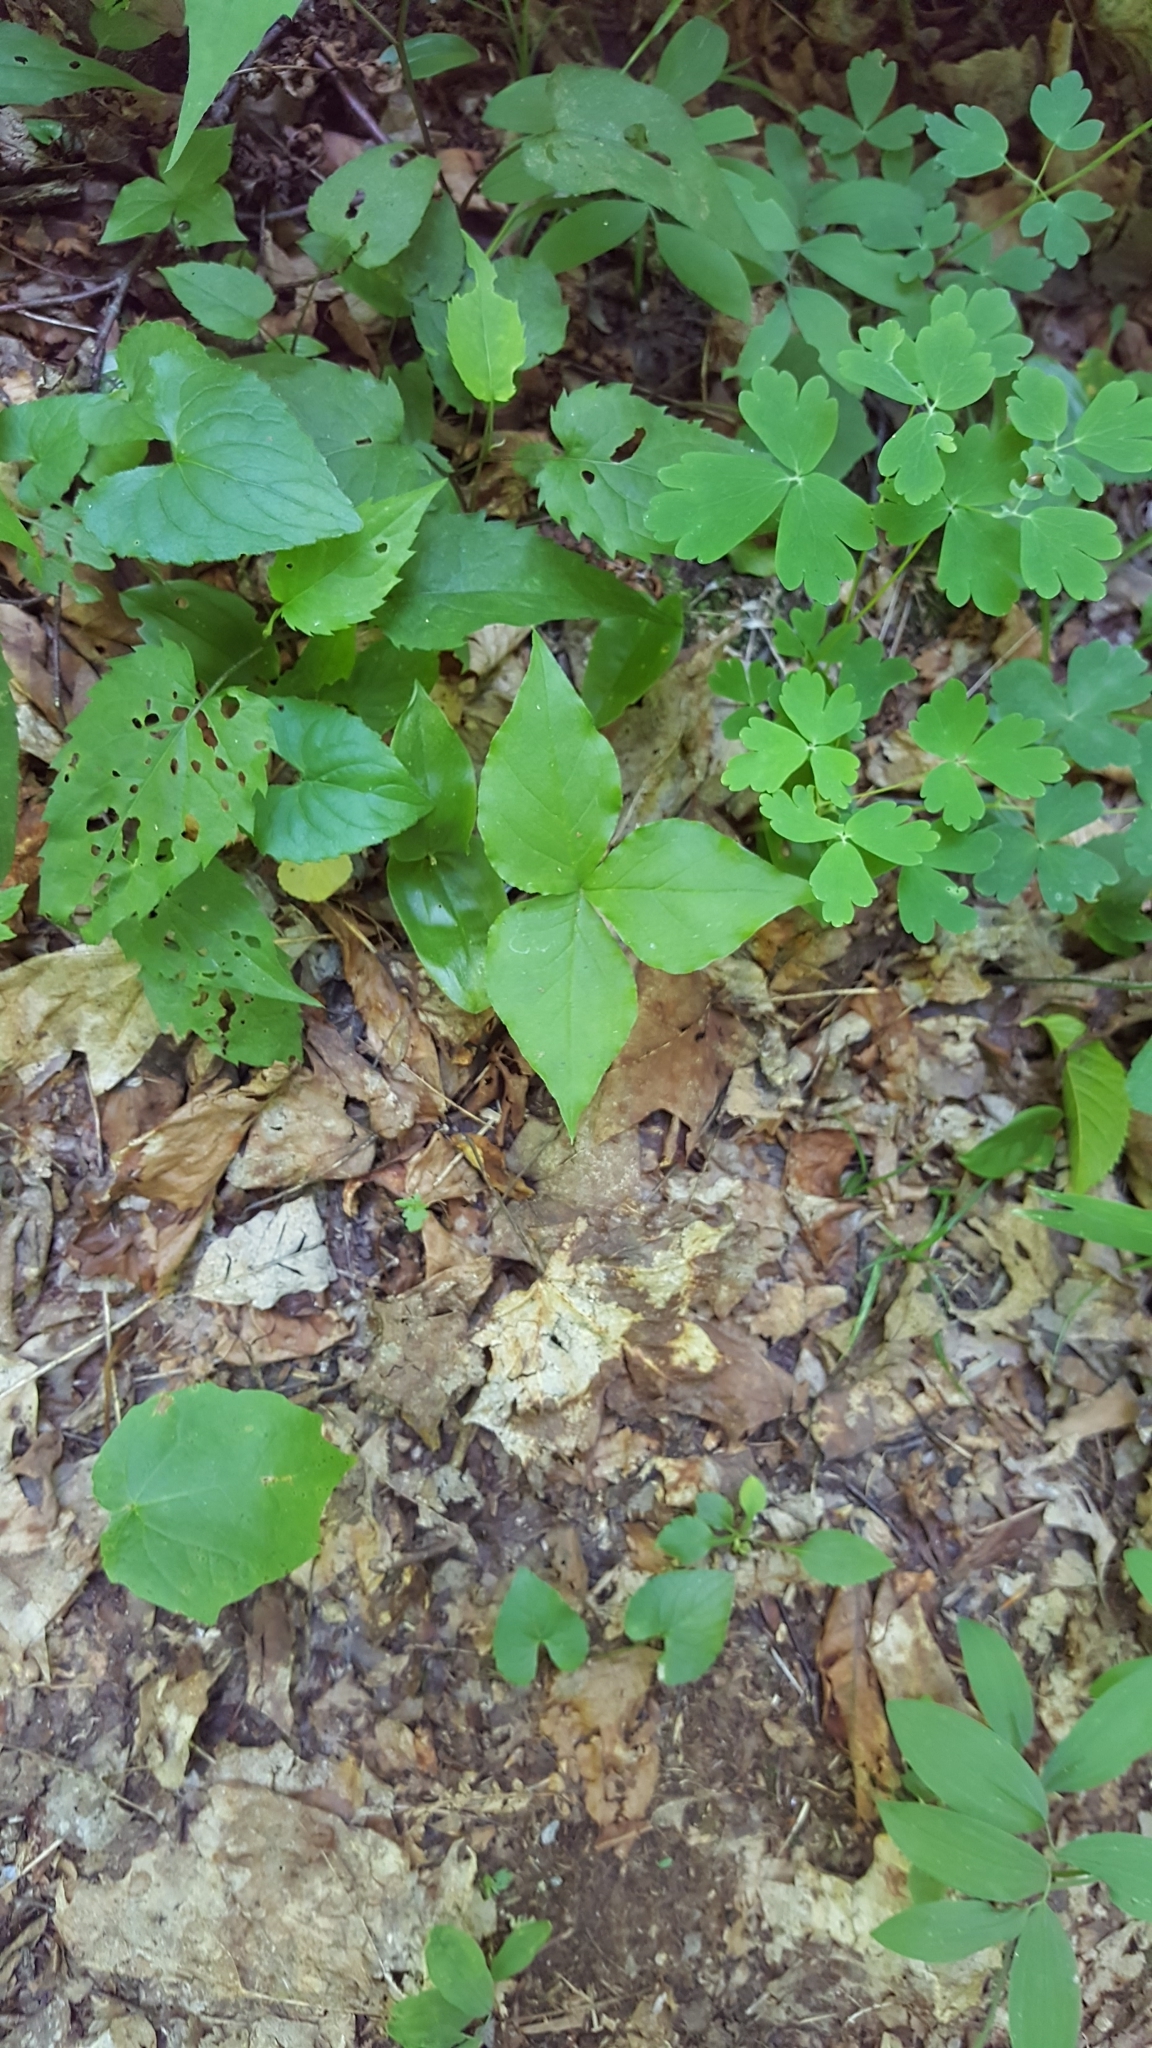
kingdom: Plantae
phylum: Tracheophyta
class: Liliopsida
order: Alismatales
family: Araceae
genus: Arisaema
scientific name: Arisaema triphyllum
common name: Jack-in-the-pulpit
